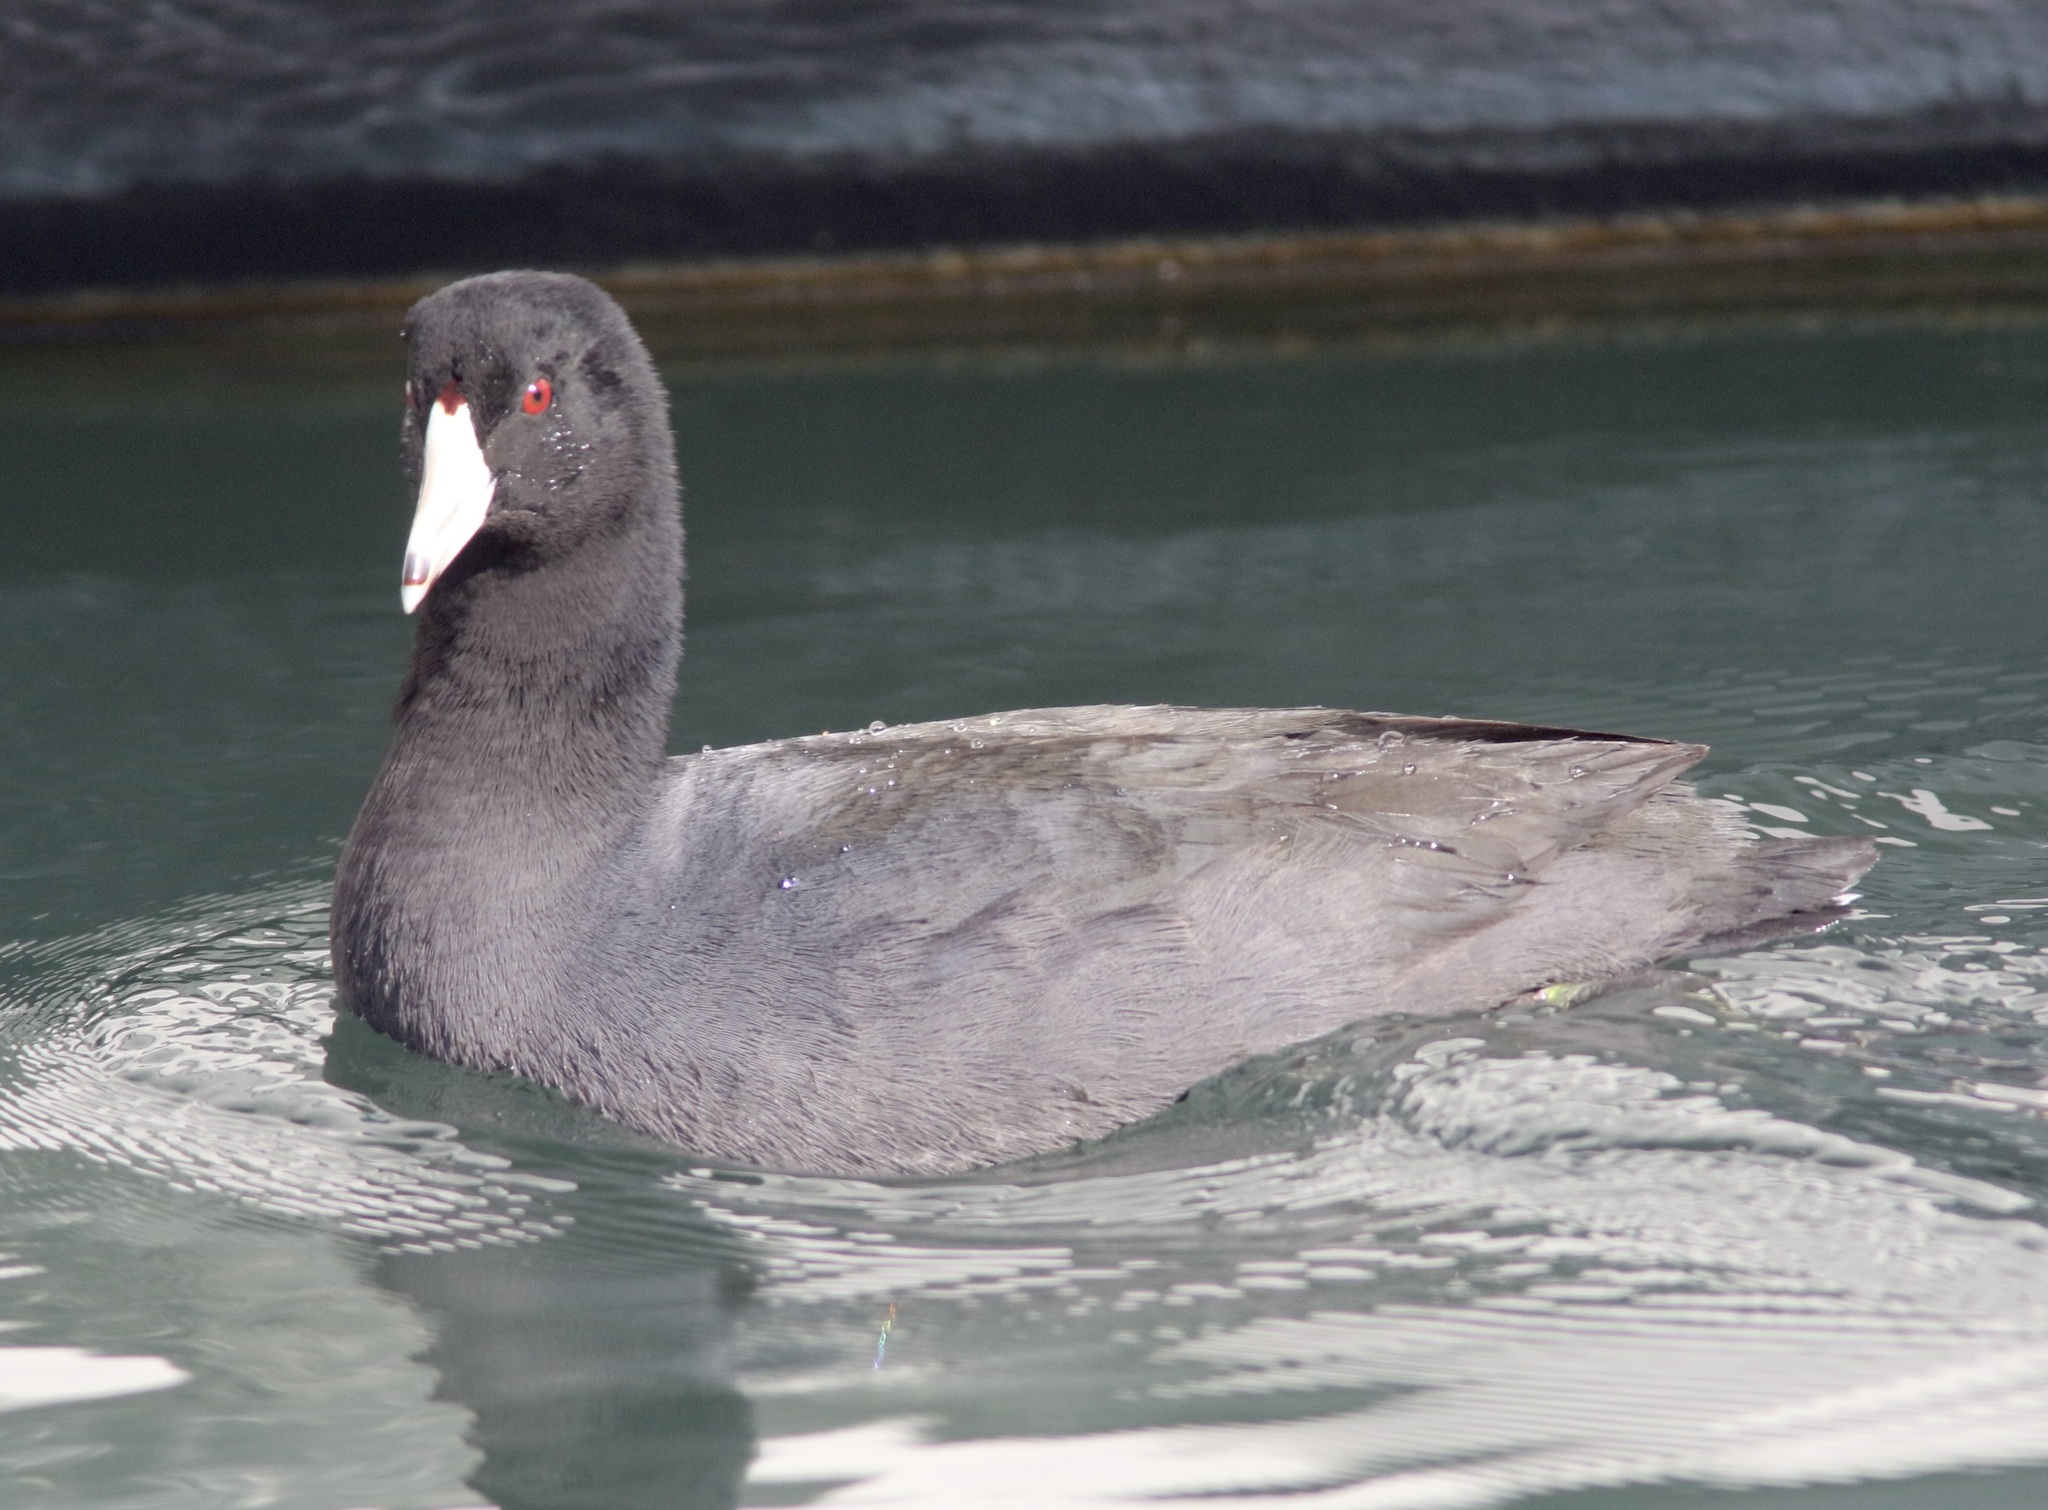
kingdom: Animalia
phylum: Chordata
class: Aves
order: Gruiformes
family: Rallidae
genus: Fulica
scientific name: Fulica americana
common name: American coot
